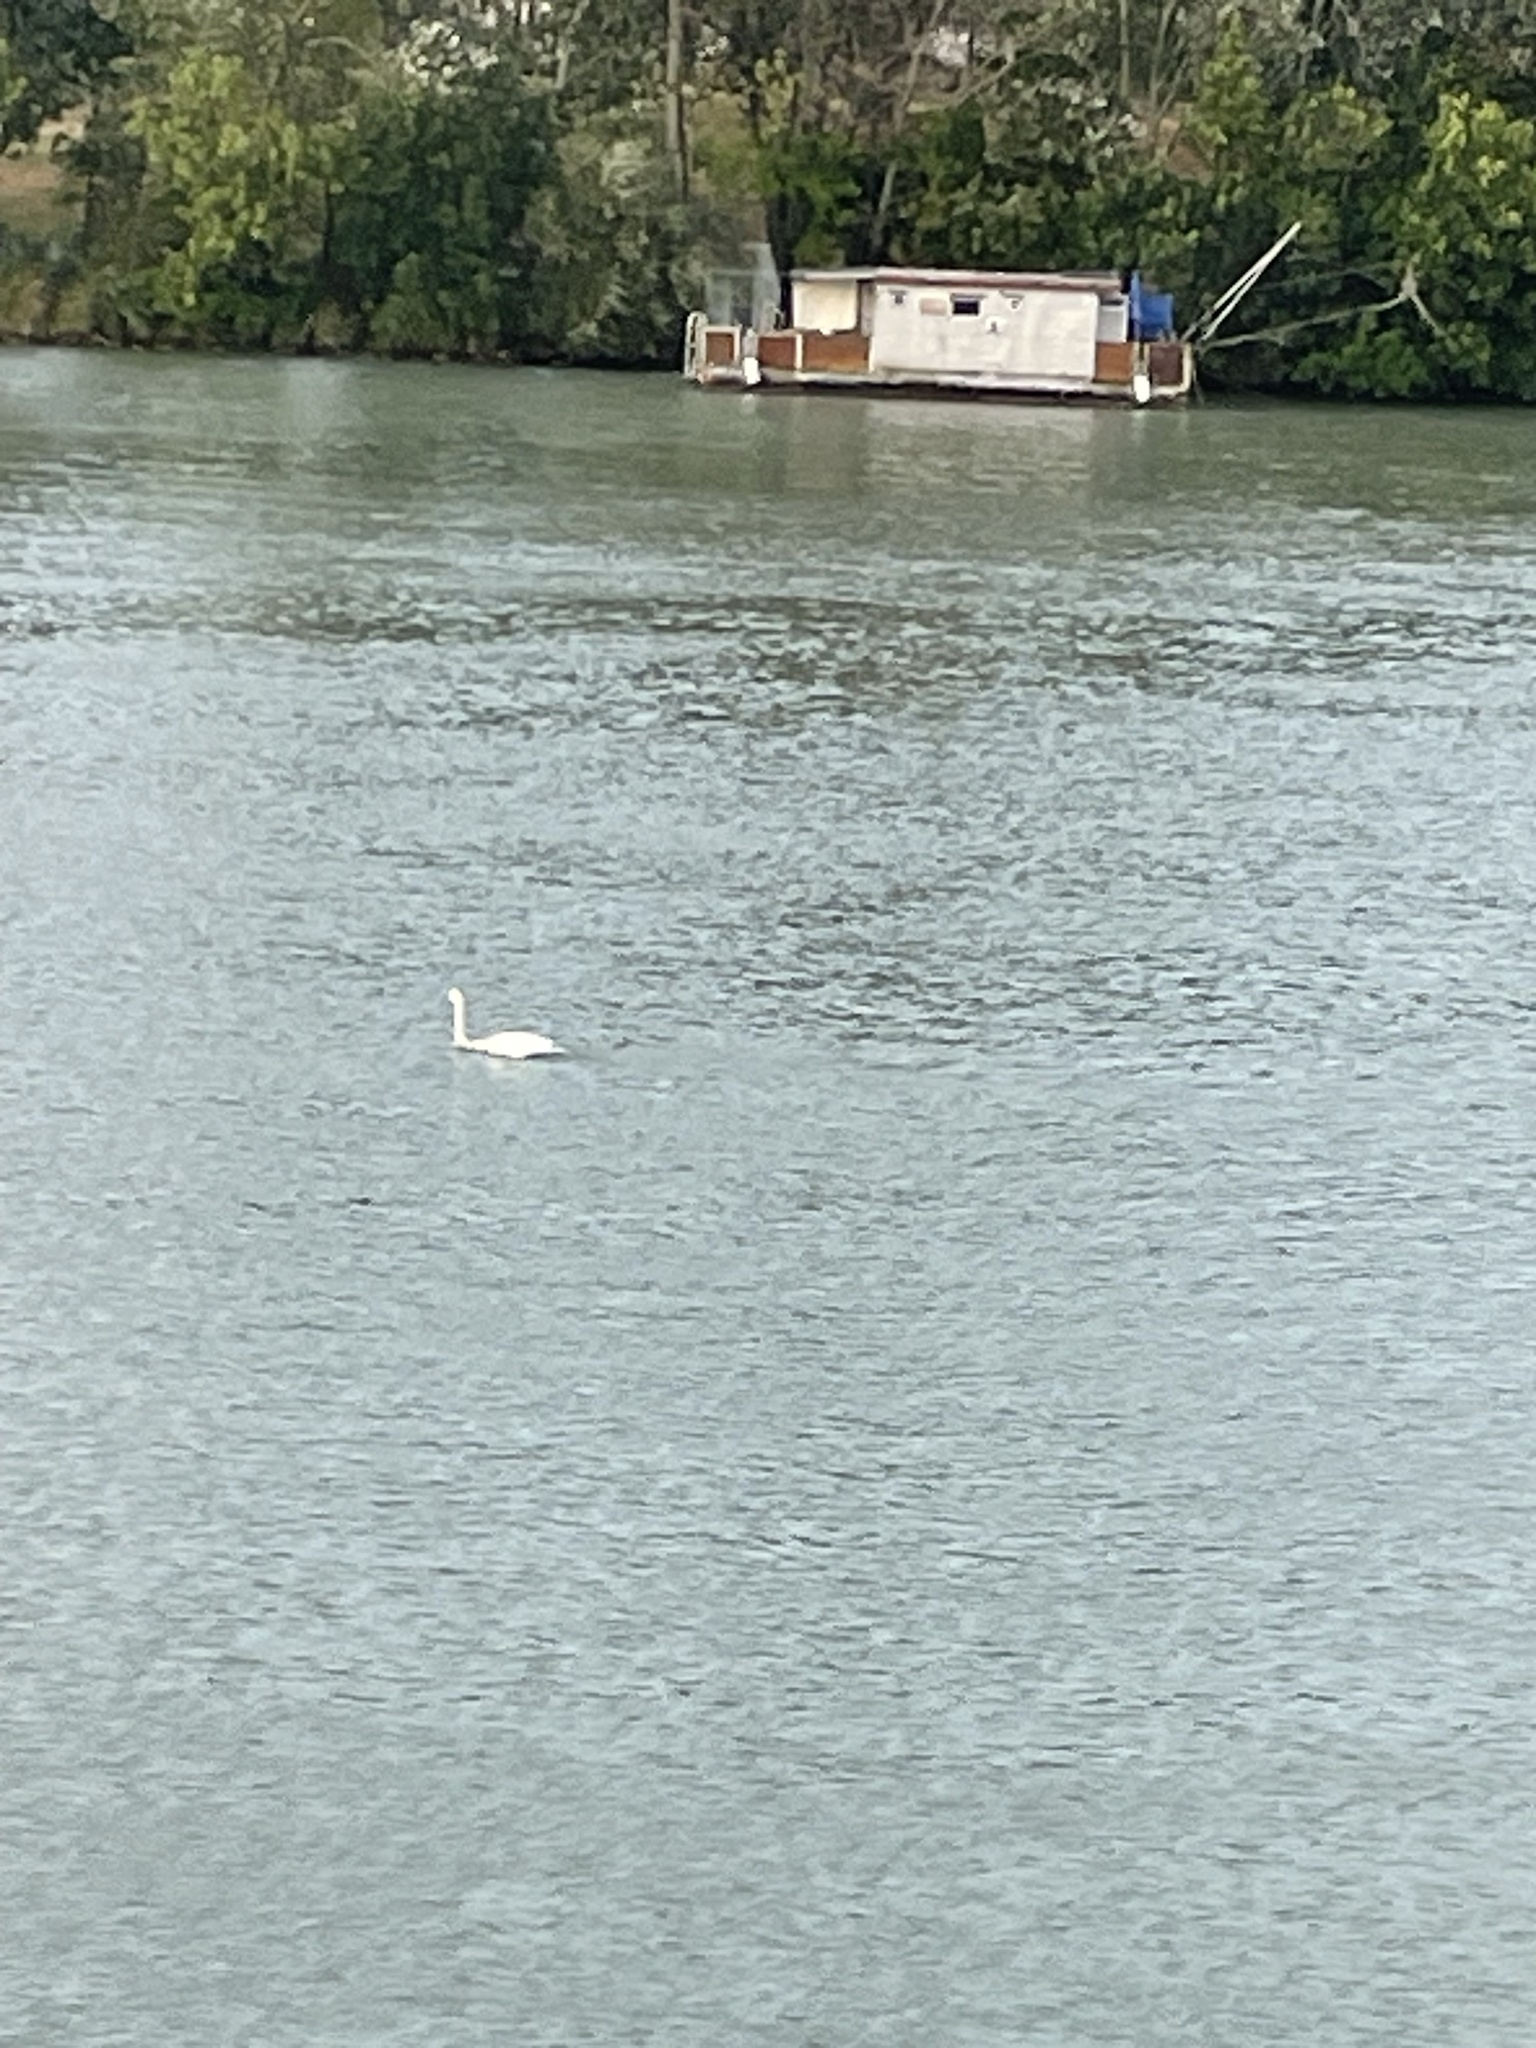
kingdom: Animalia
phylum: Chordata
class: Aves
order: Anseriformes
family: Anatidae
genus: Cygnus
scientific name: Cygnus olor
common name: Mute swan
